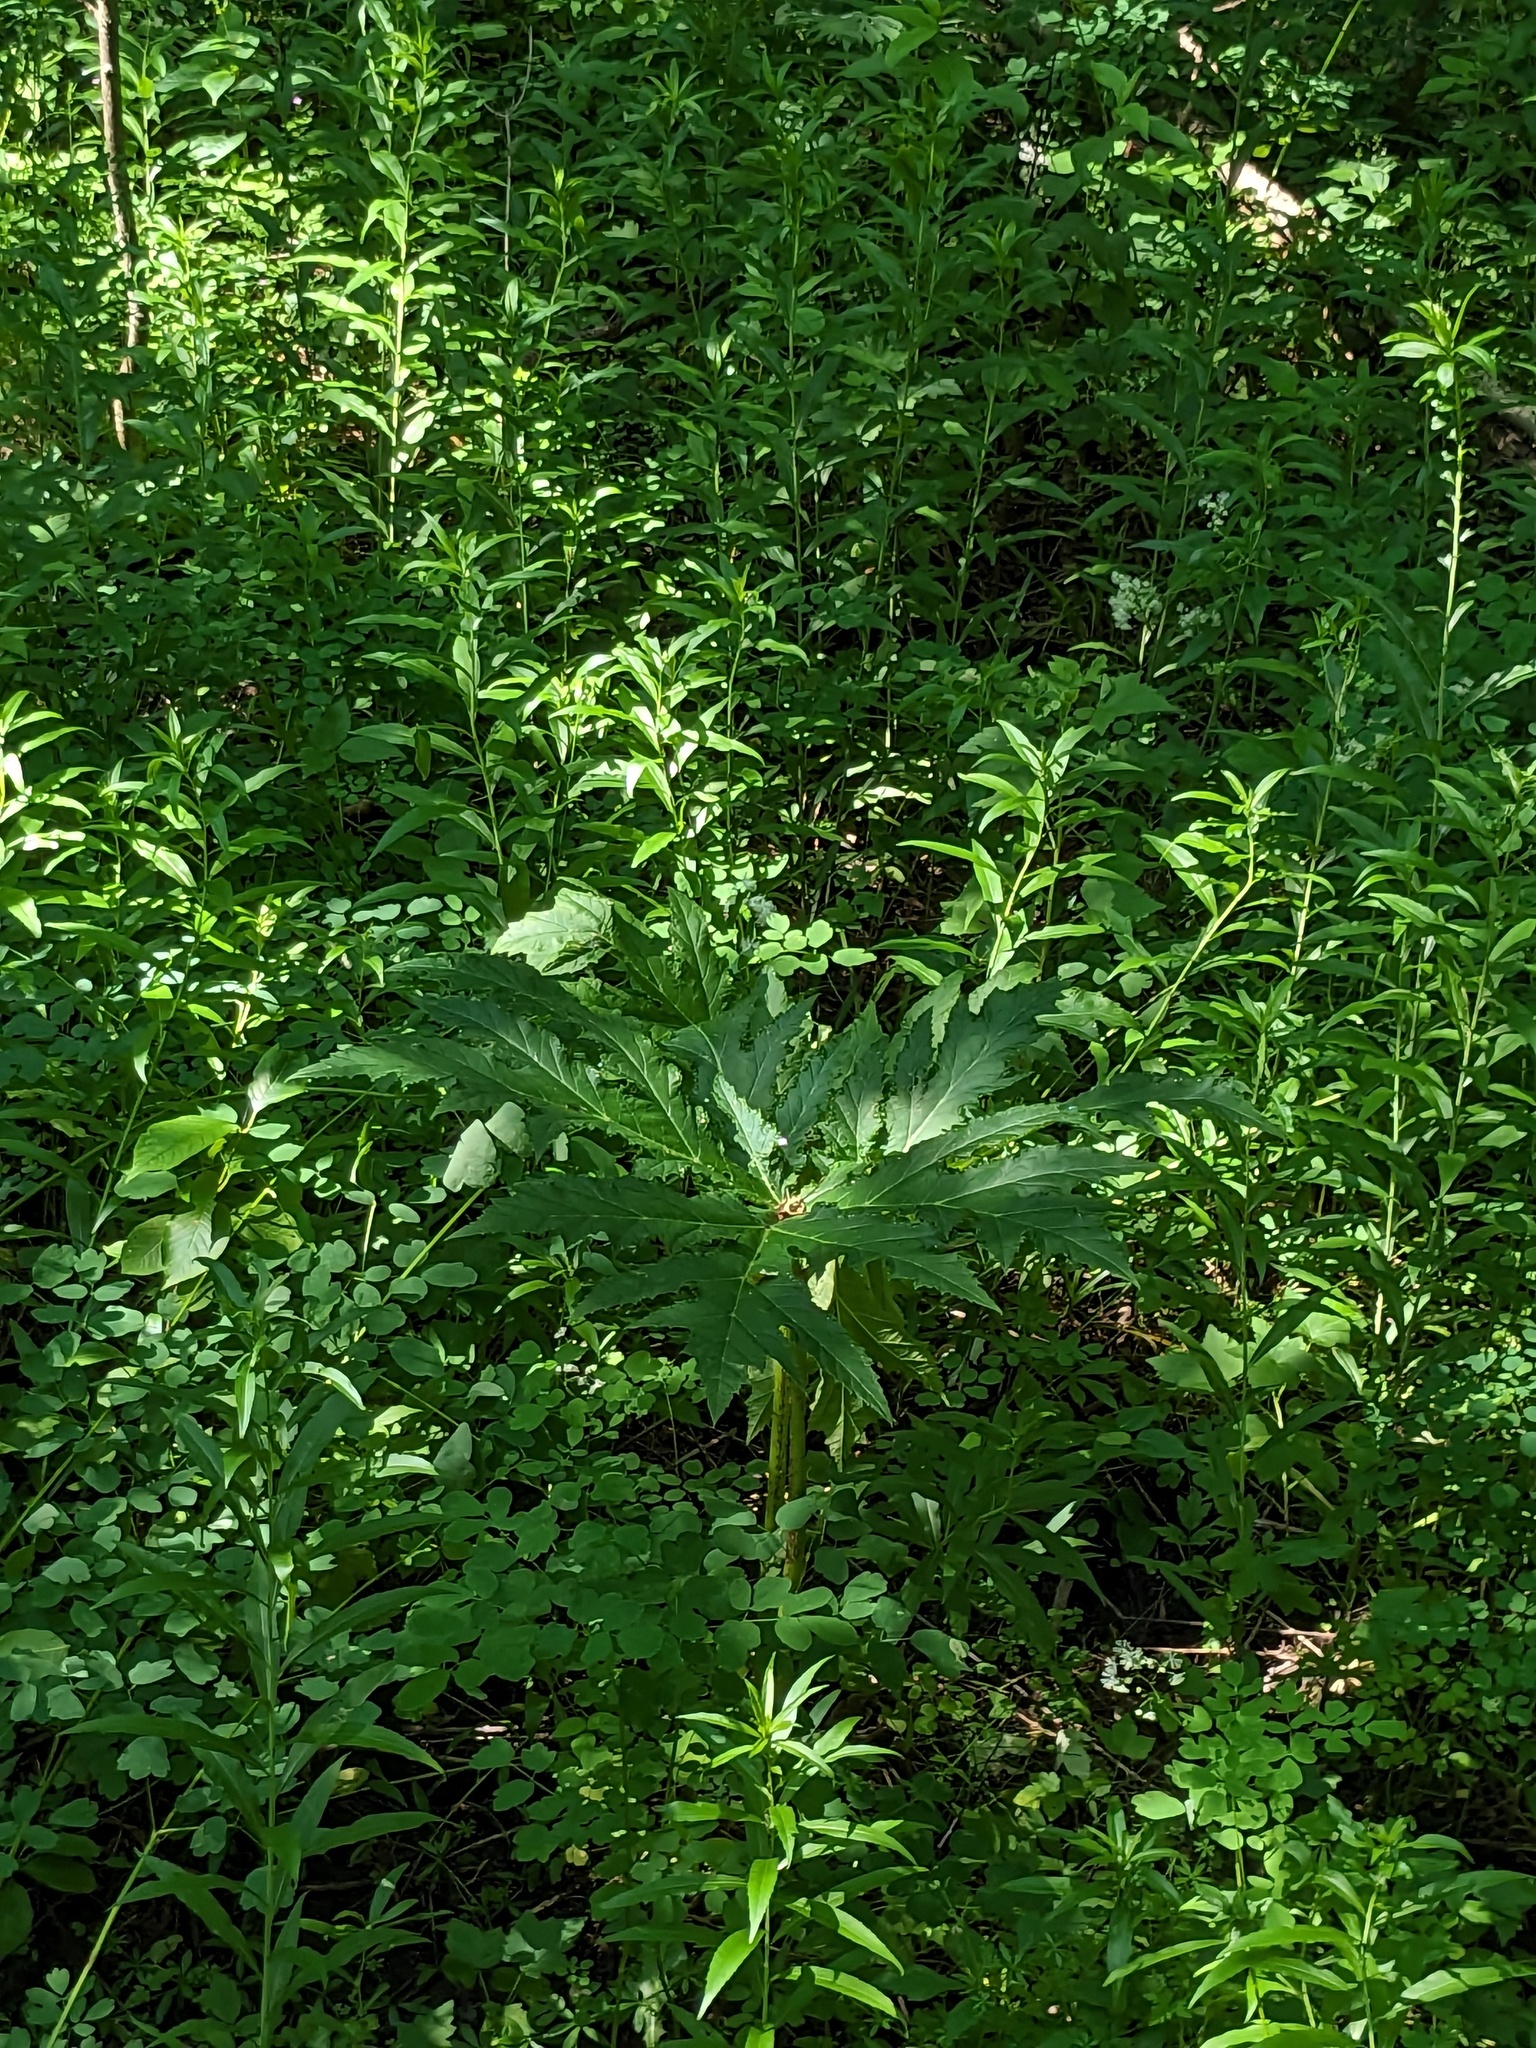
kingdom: Plantae
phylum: Tracheophyta
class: Magnoliopsida
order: Apiales
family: Apiaceae
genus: Heracleum
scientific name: Heracleum mantegazzianum
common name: Giant hogweed
